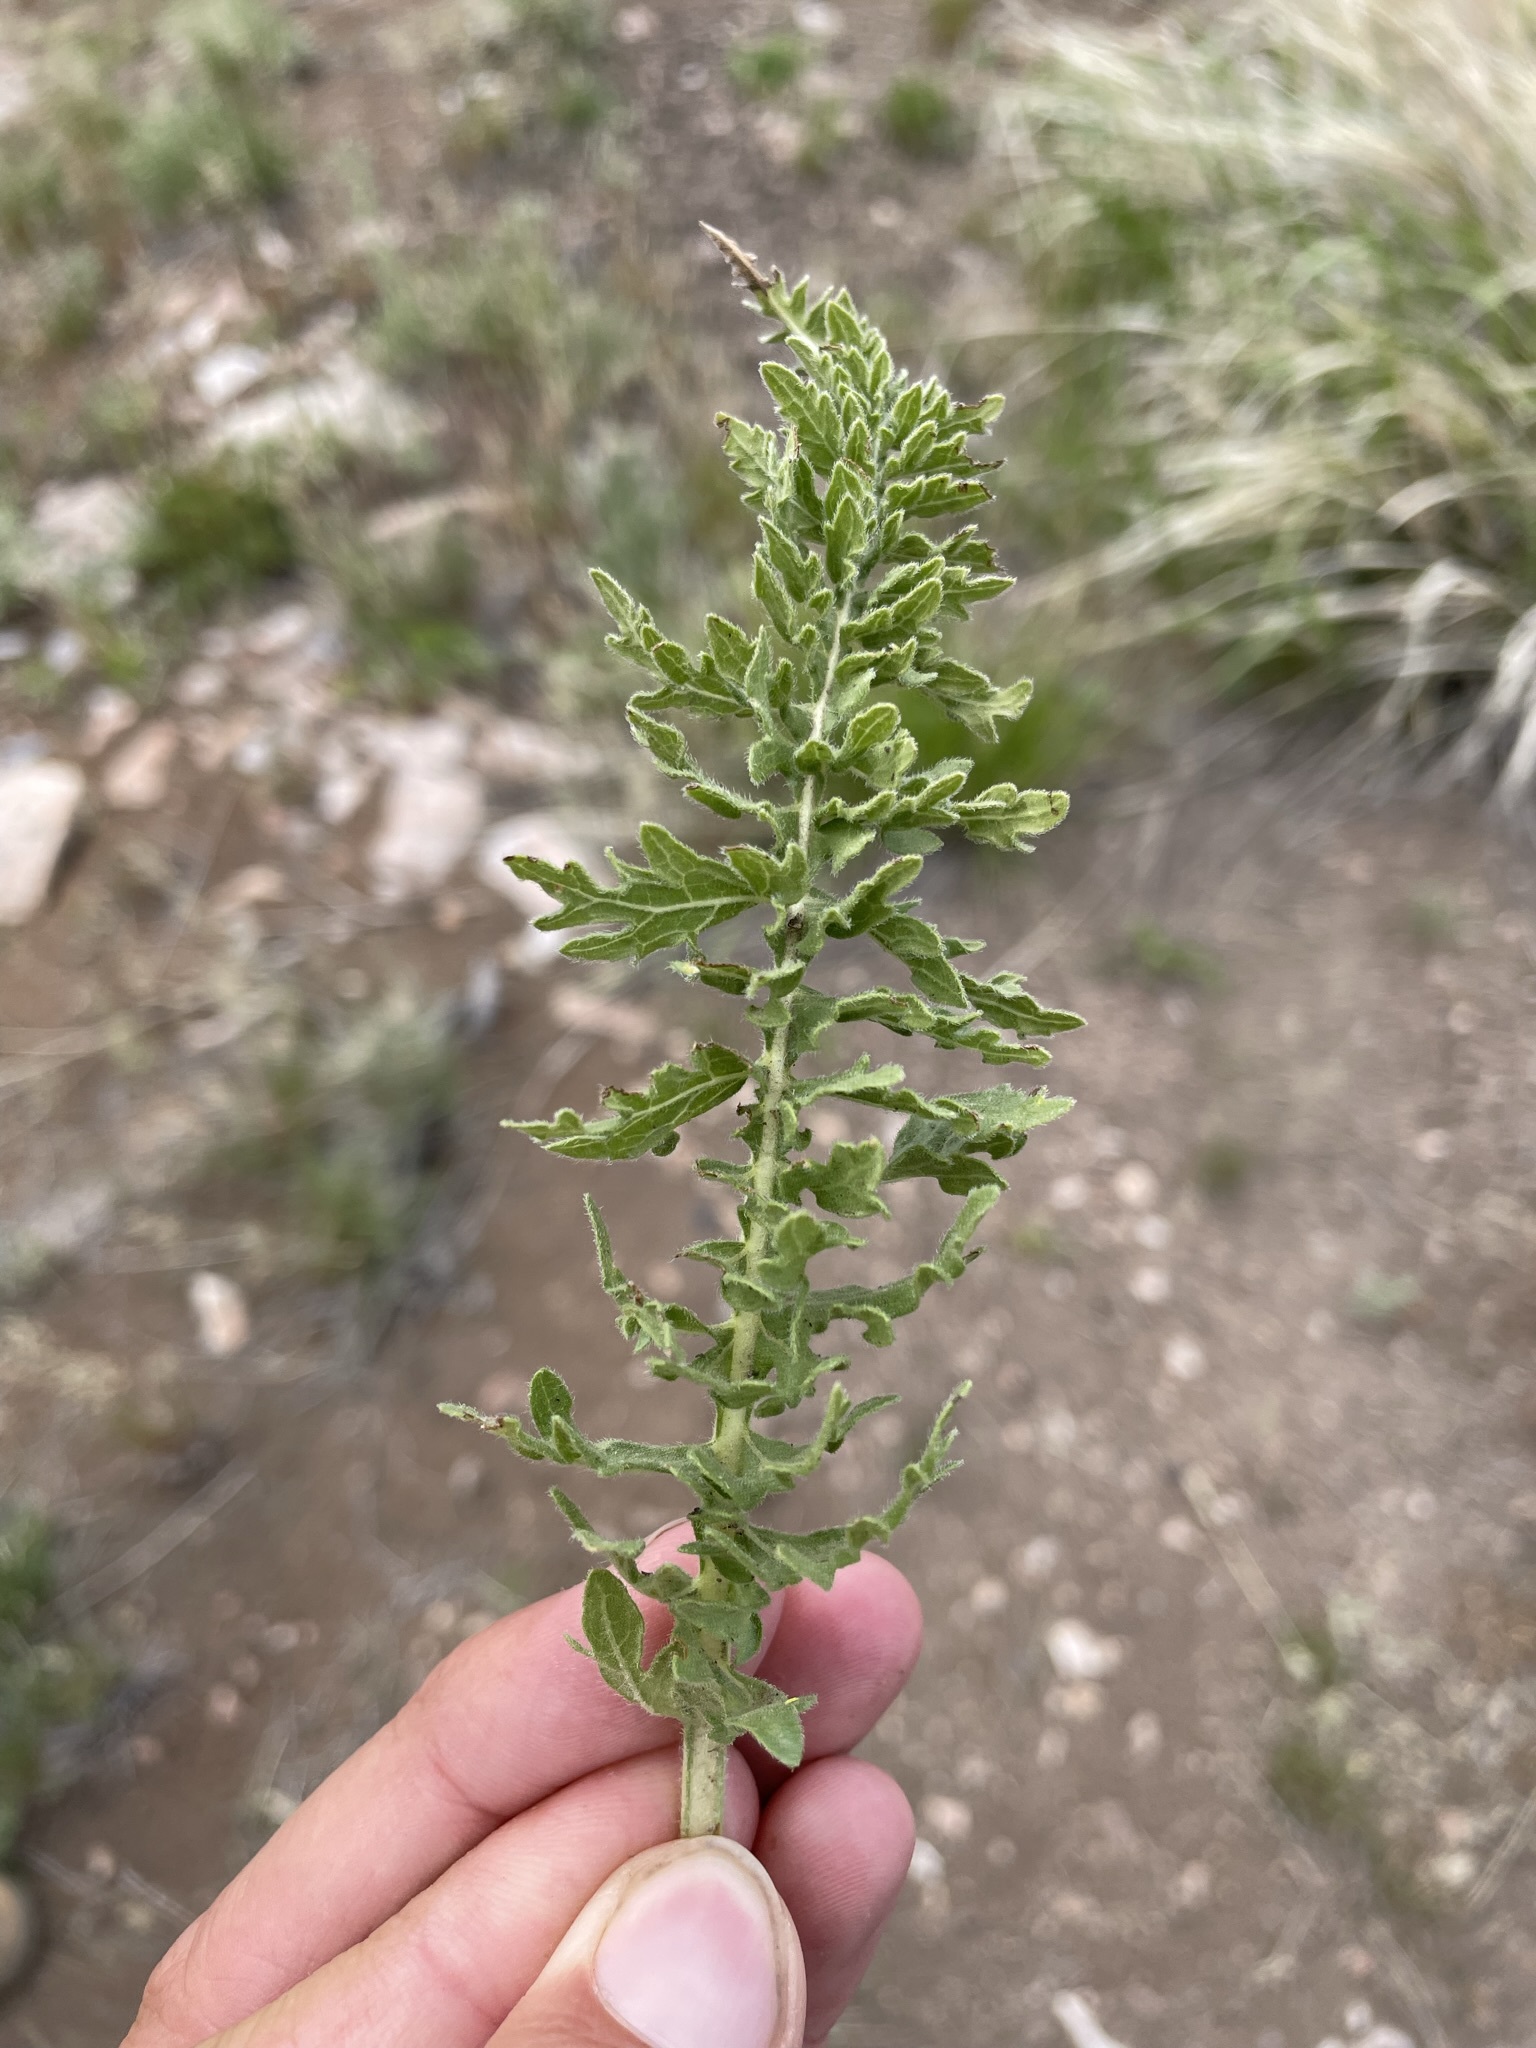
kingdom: Plantae
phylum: Tracheophyta
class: Magnoliopsida
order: Asterales
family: Asteraceae
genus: Balsamorhiza
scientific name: Balsamorhiza hispidula
